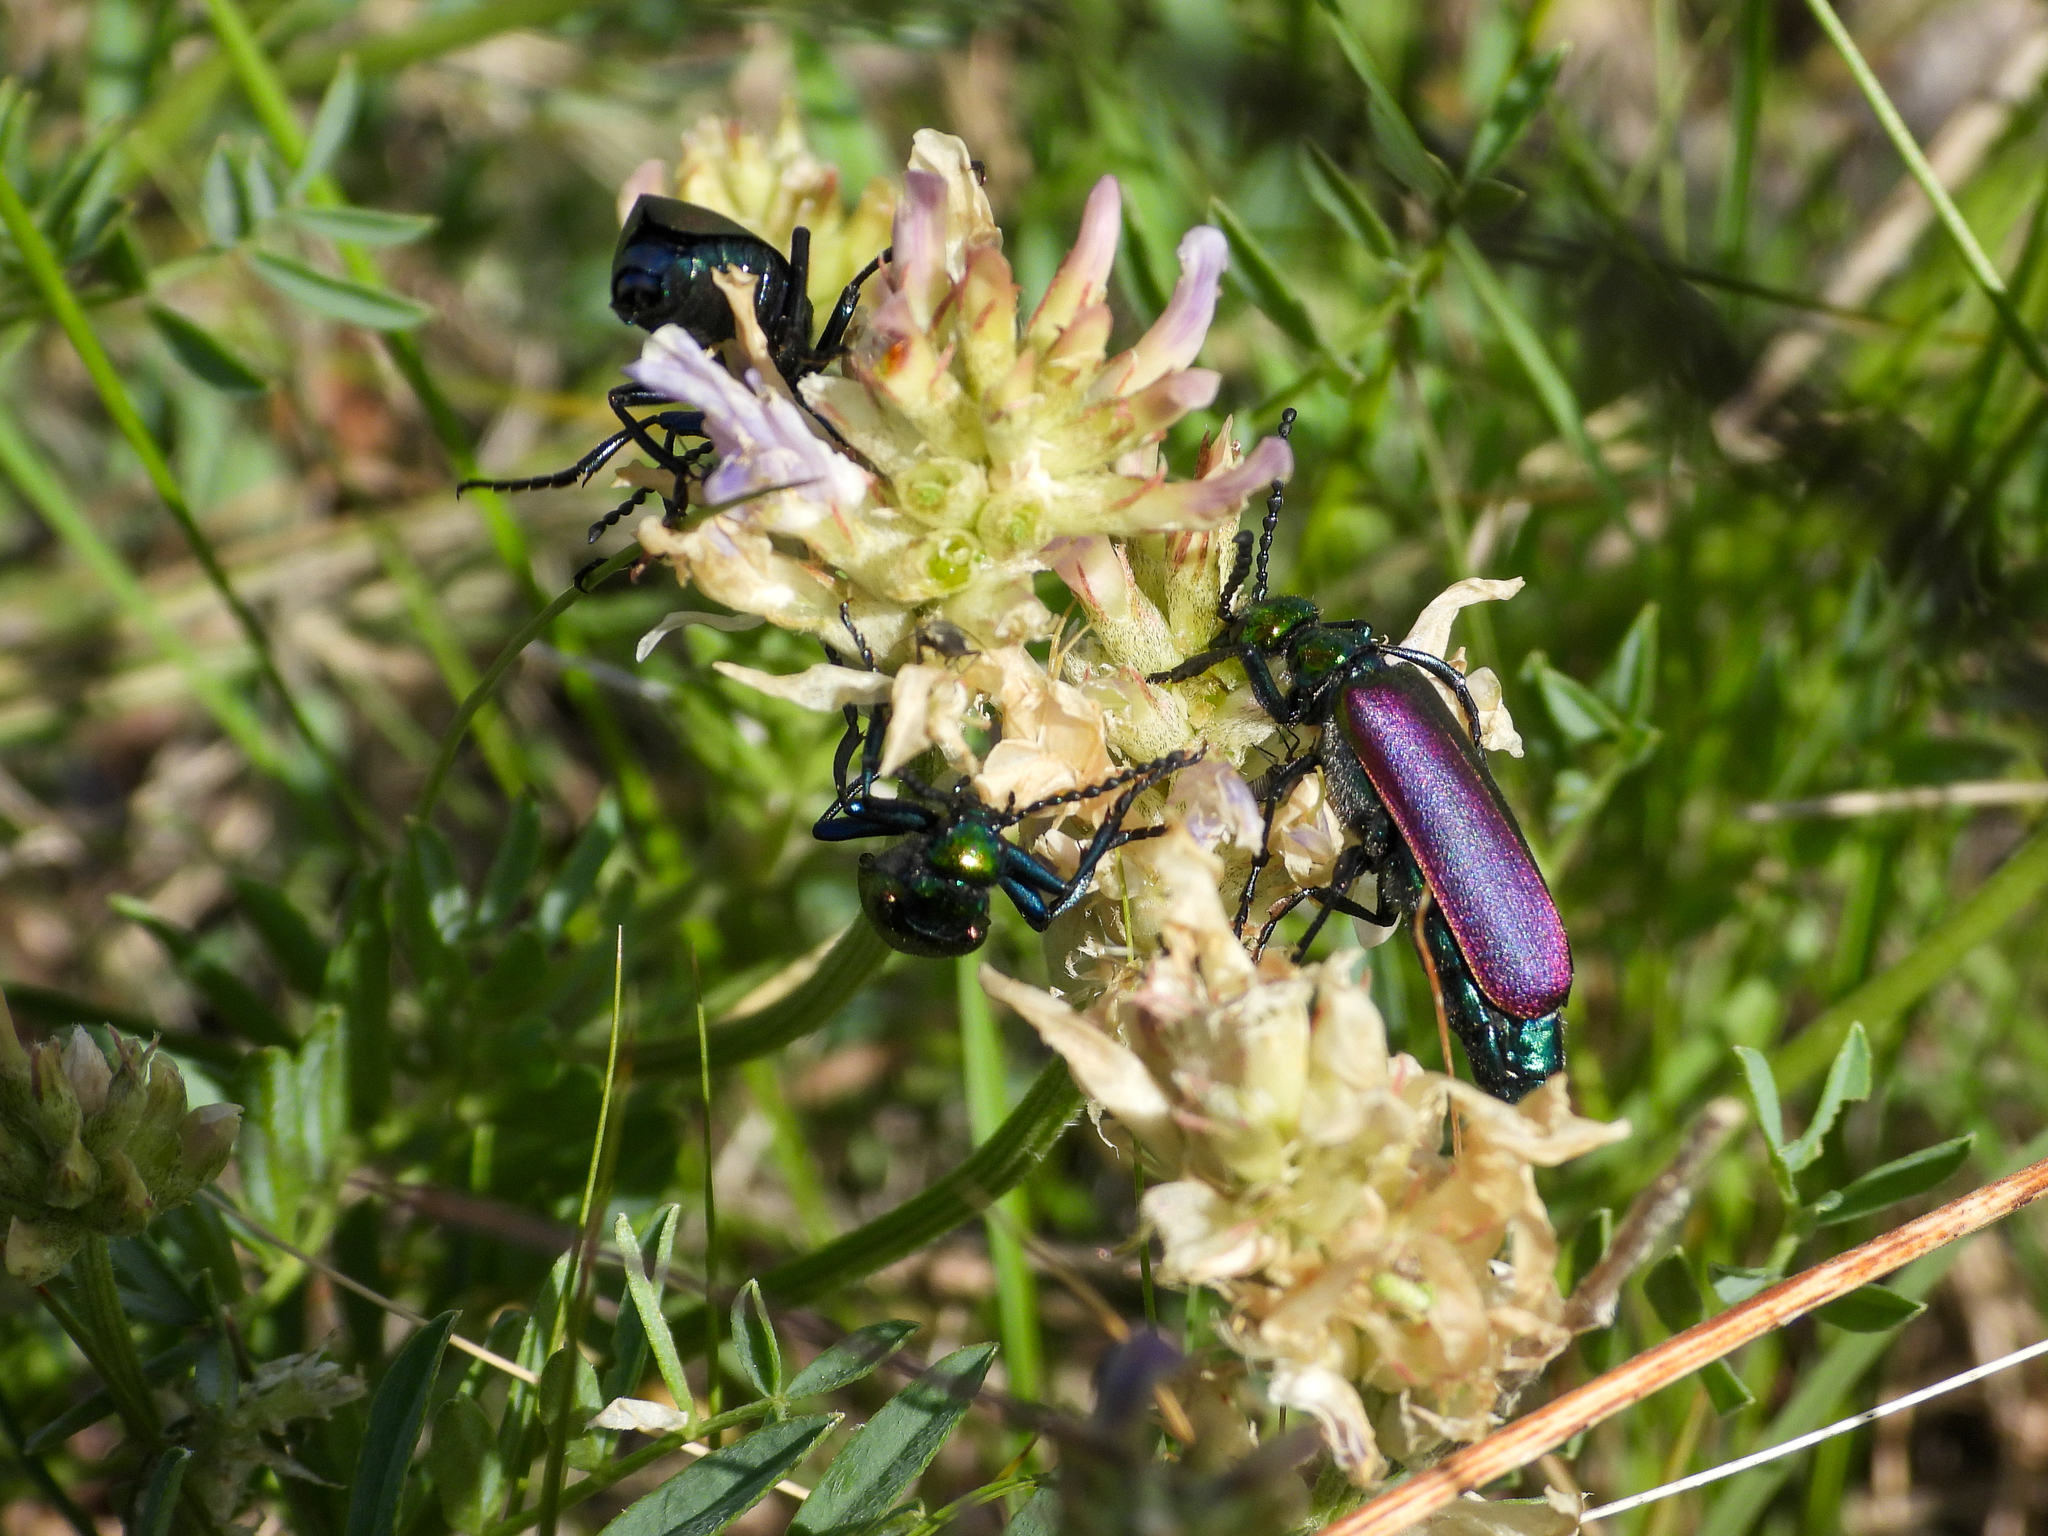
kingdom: Animalia
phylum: Arthropoda
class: Insecta
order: Coleoptera
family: Meloidae
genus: Lytta
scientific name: Lytta nuttallii
